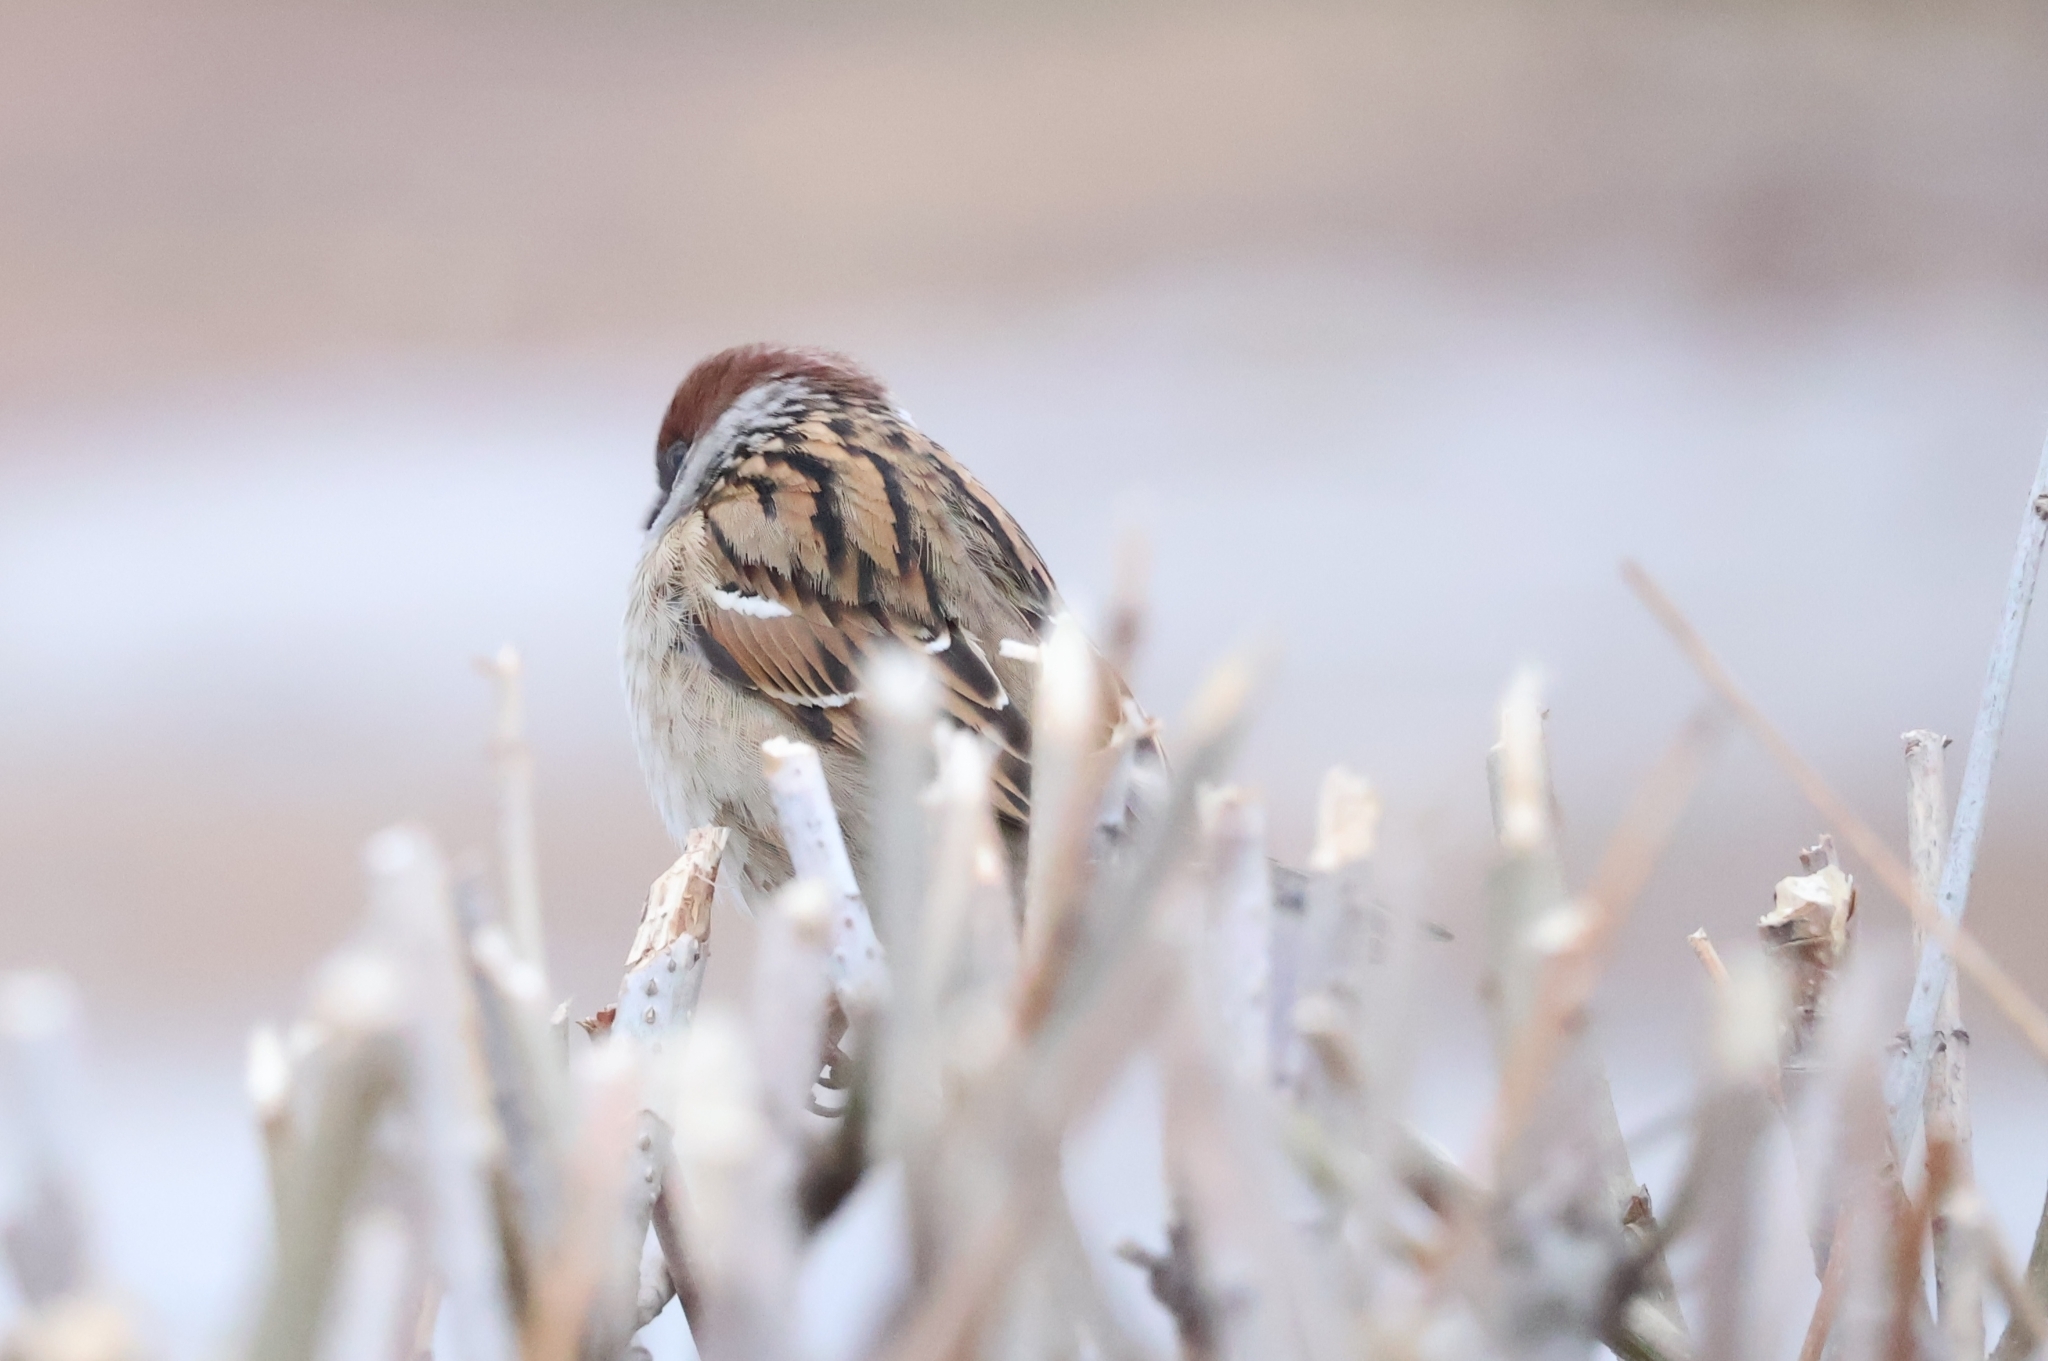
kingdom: Animalia
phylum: Chordata
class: Aves
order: Passeriformes
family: Passeridae
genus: Passer
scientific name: Passer montanus
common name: Eurasian tree sparrow
